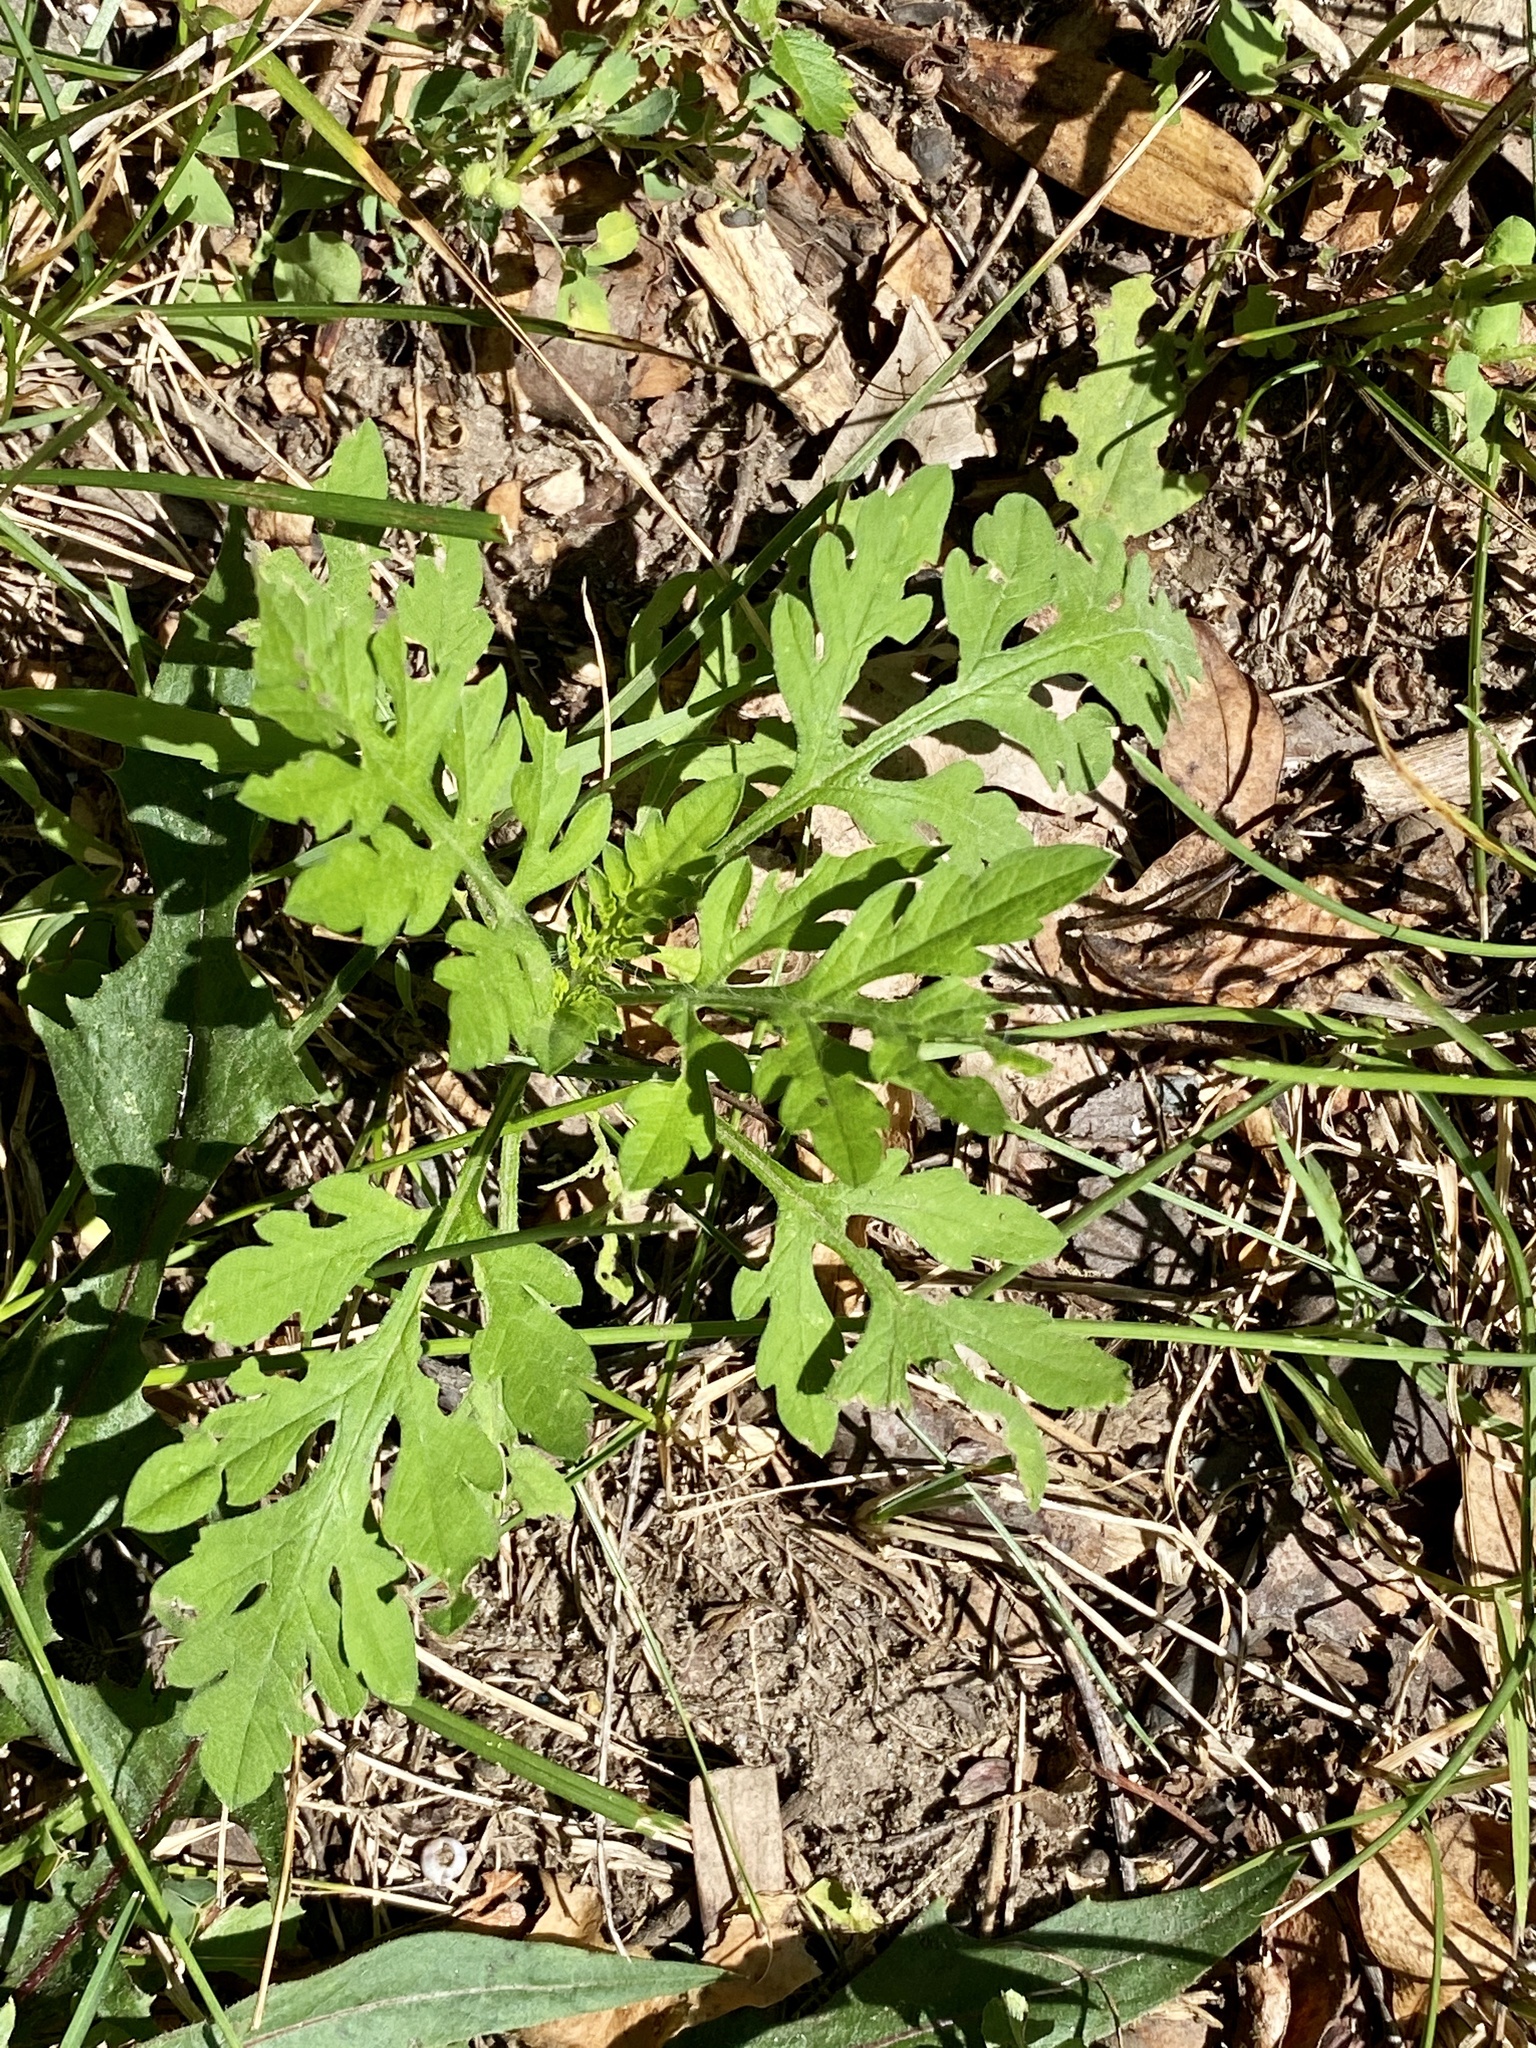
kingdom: Plantae
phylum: Tracheophyta
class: Magnoliopsida
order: Asterales
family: Asteraceae
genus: Ambrosia
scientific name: Ambrosia artemisiifolia
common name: Annual ragweed
